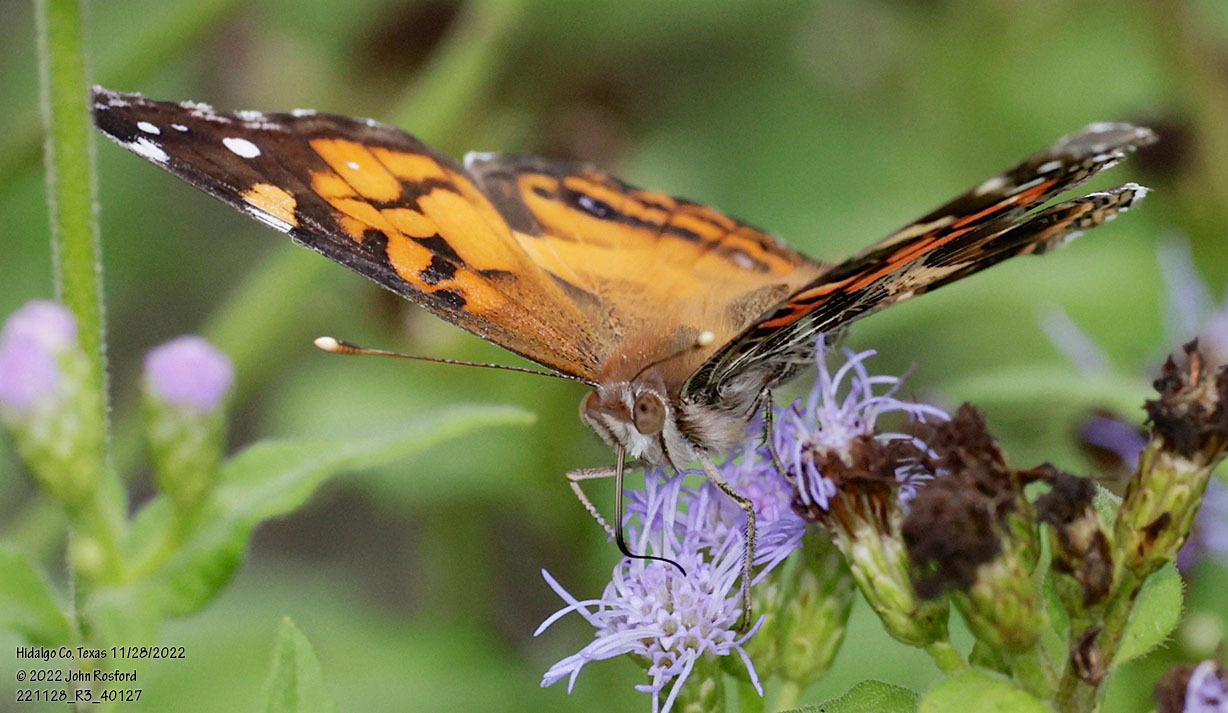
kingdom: Animalia
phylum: Arthropoda
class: Insecta
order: Lepidoptera
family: Nymphalidae
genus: Vanessa
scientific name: Vanessa virginiensis
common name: American lady
